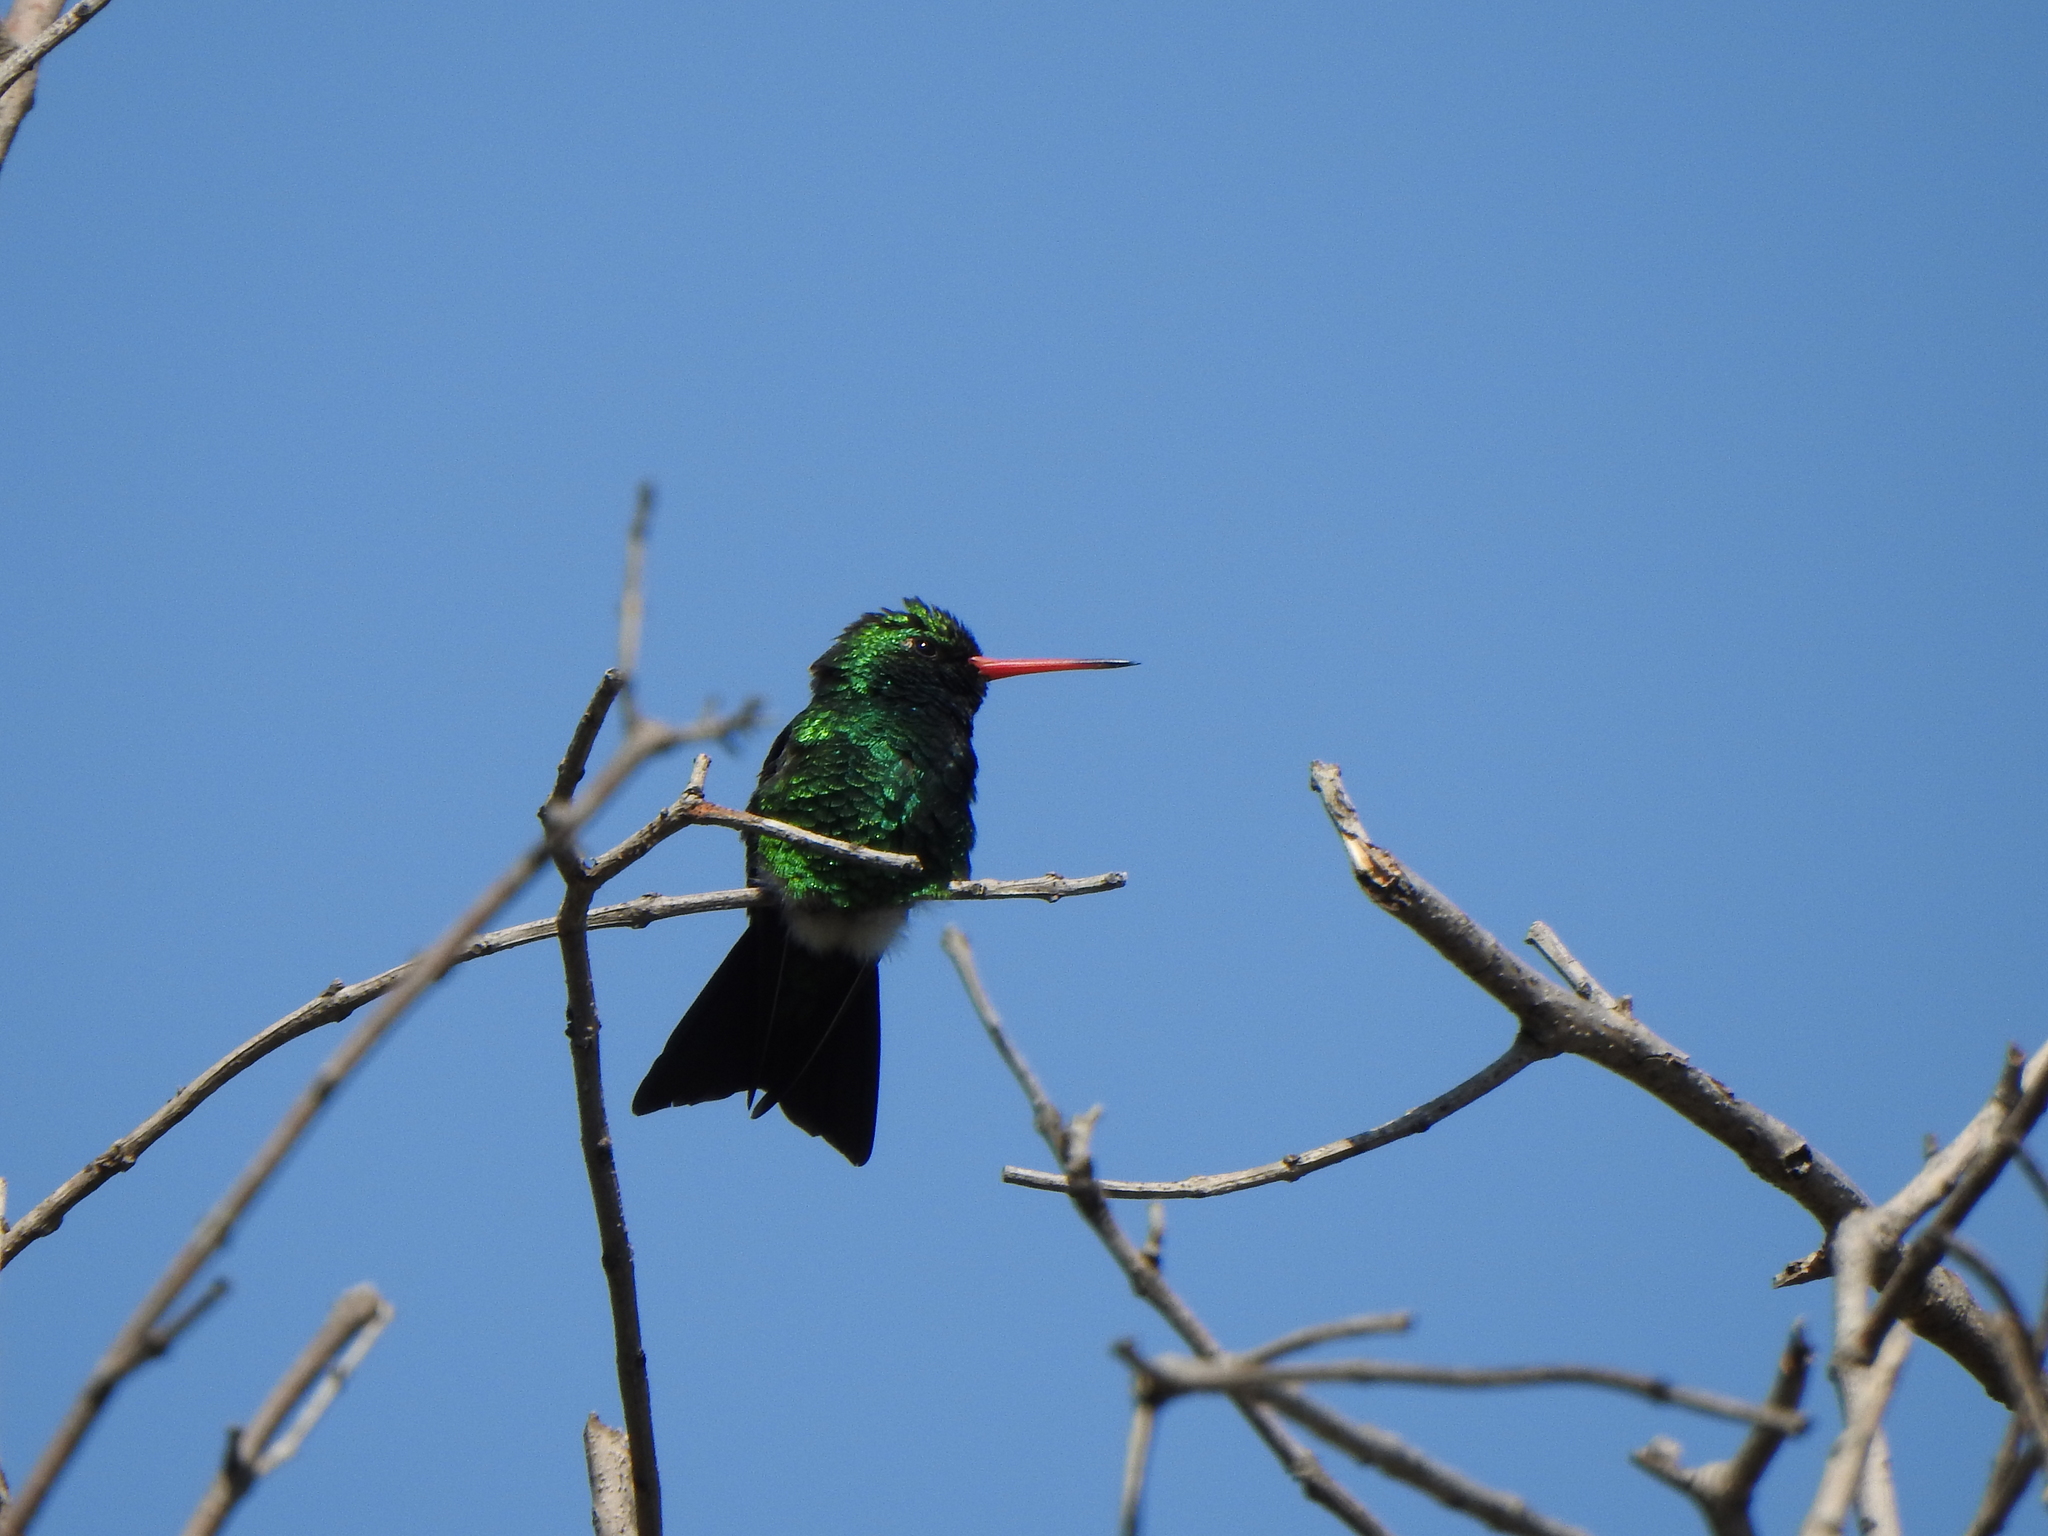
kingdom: Animalia
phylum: Chordata
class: Aves
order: Apodiformes
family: Trochilidae
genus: Chlorostilbon
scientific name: Chlorostilbon lucidus
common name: Glittering-bellied emerald
